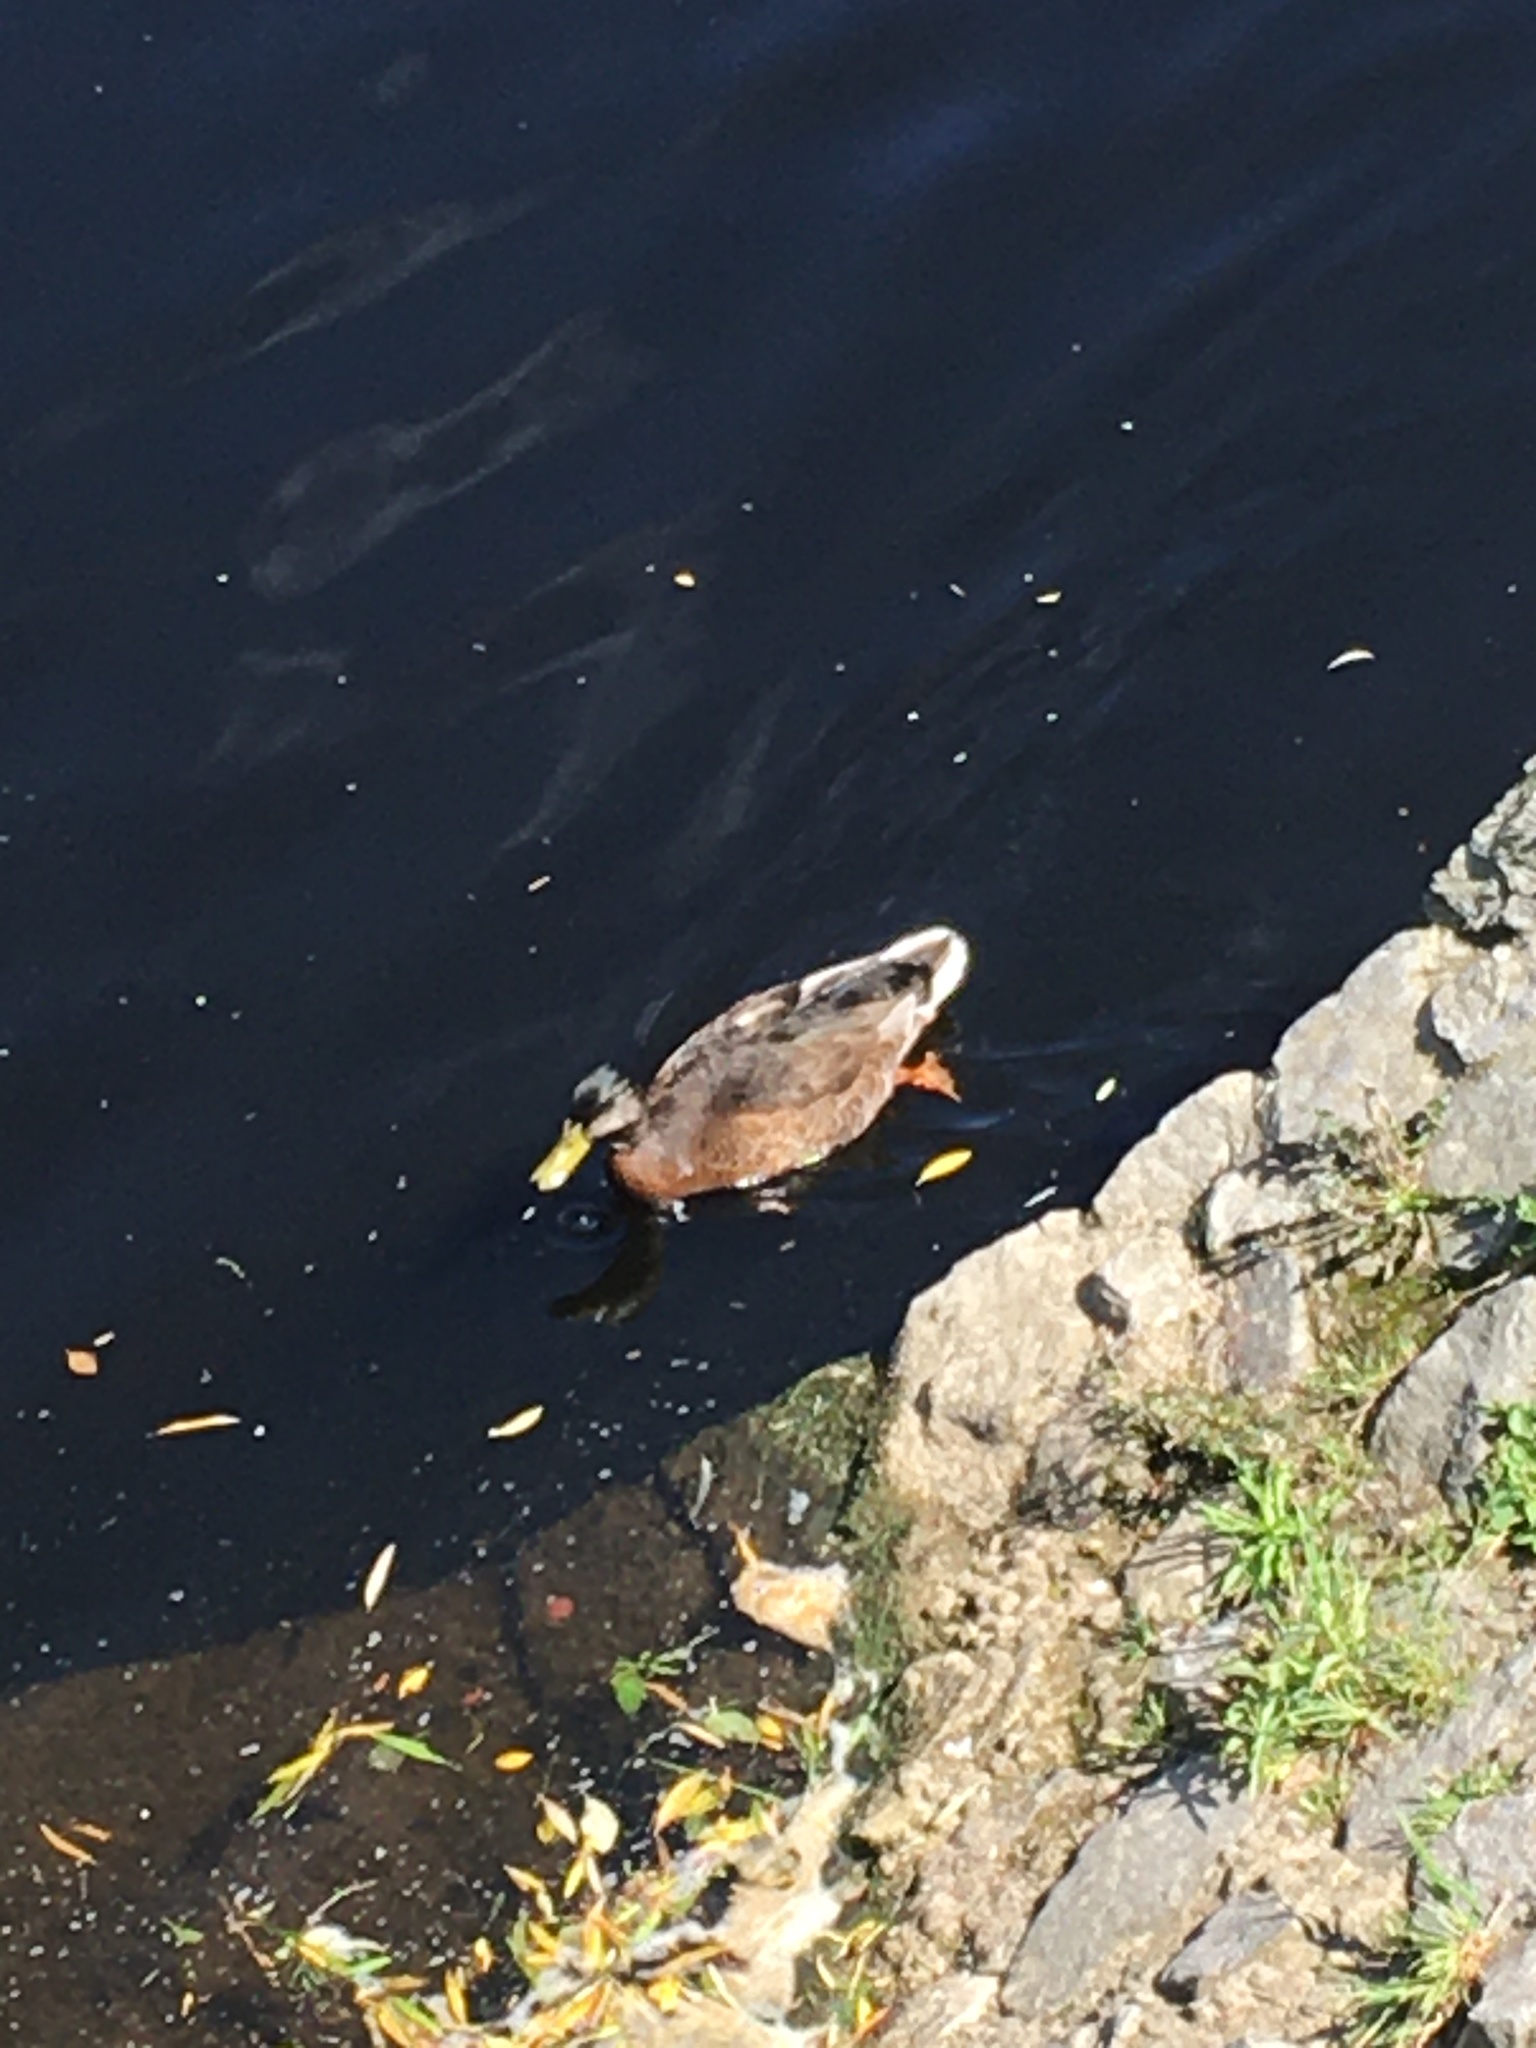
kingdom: Animalia
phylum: Chordata
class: Aves
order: Anseriformes
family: Anatidae
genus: Anas
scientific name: Anas platyrhynchos
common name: Mallard
